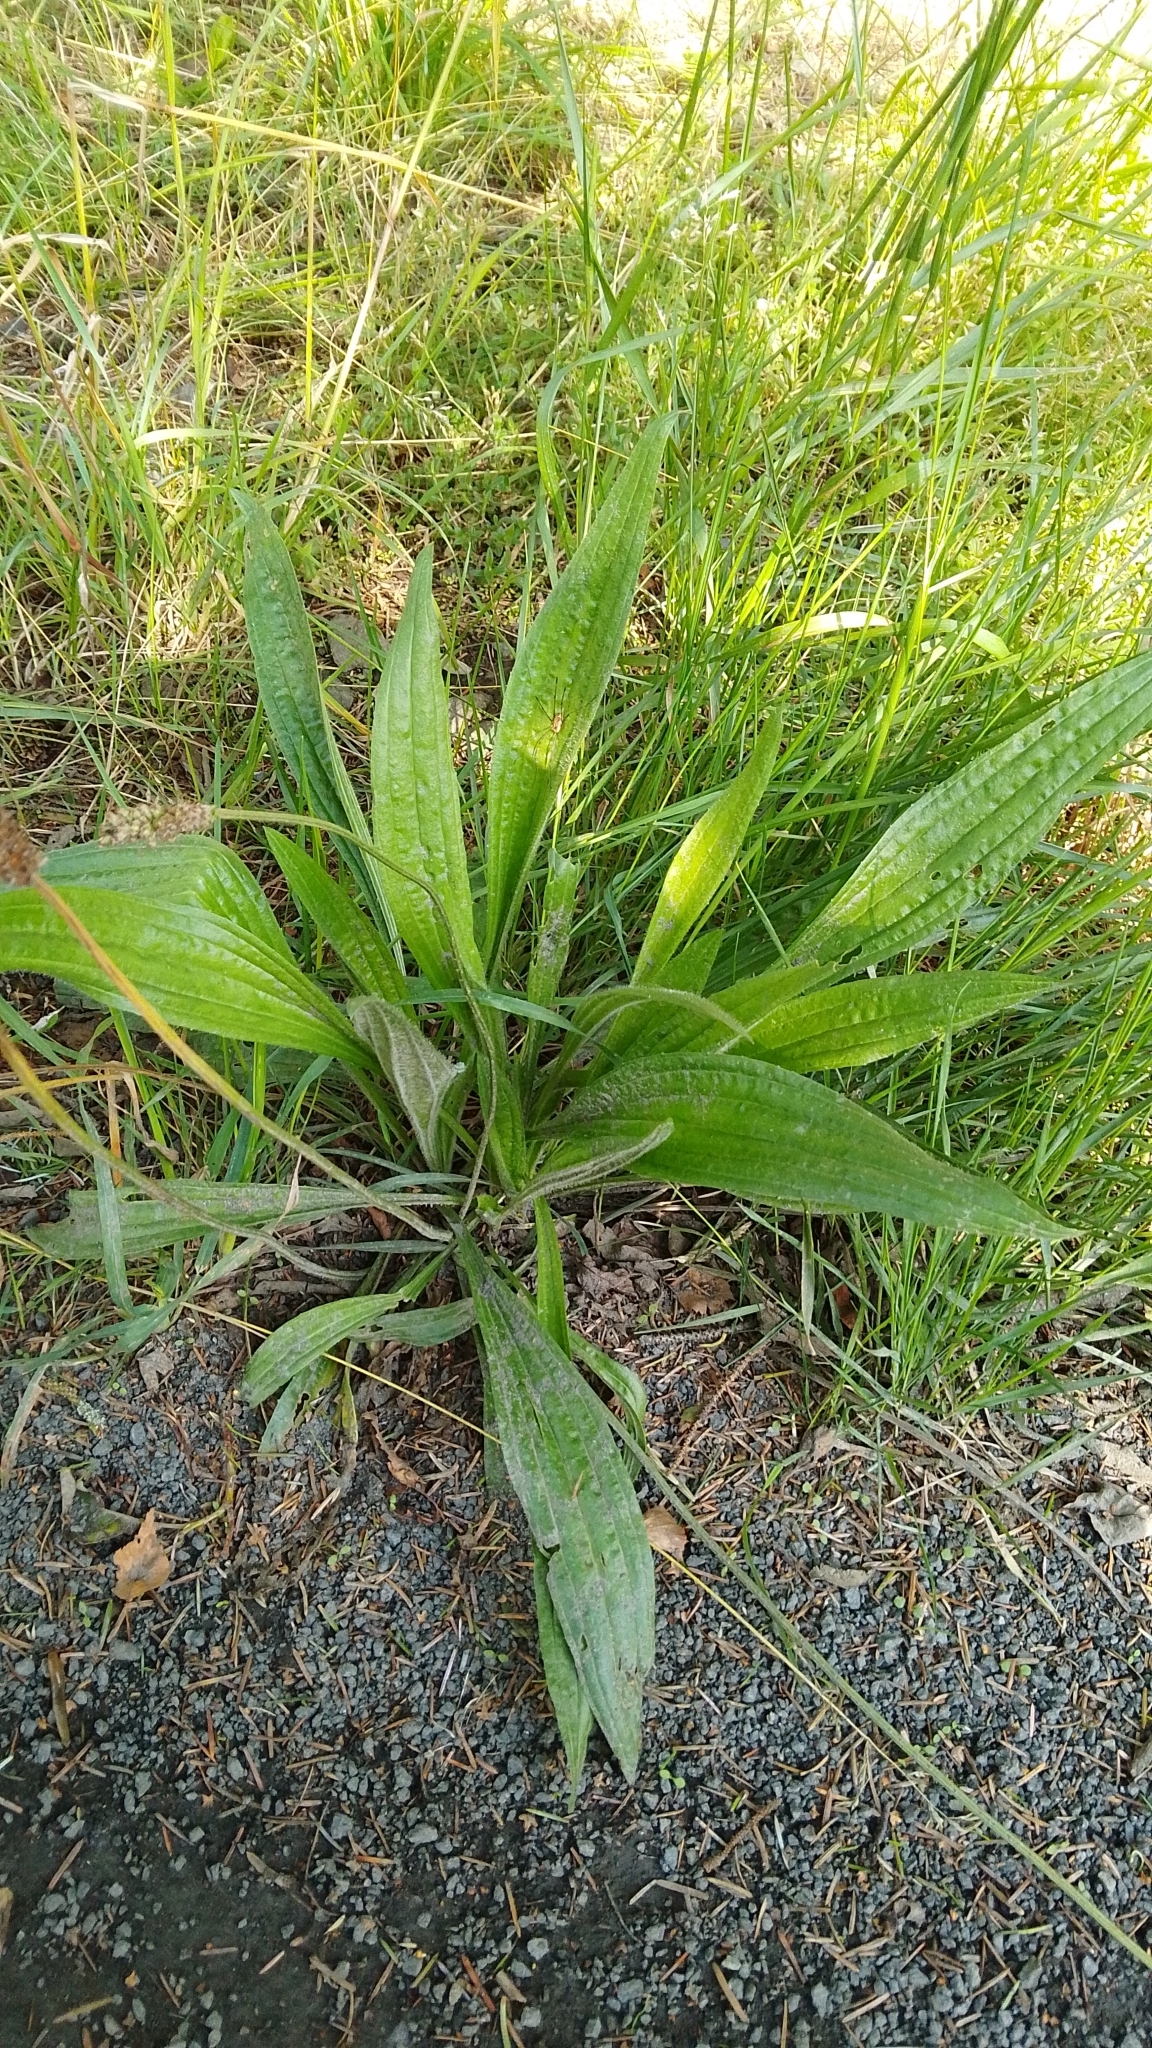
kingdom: Plantae
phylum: Tracheophyta
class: Magnoliopsida
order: Lamiales
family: Plantaginaceae
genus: Plantago
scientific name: Plantago lanceolata
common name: Ribwort plantain
